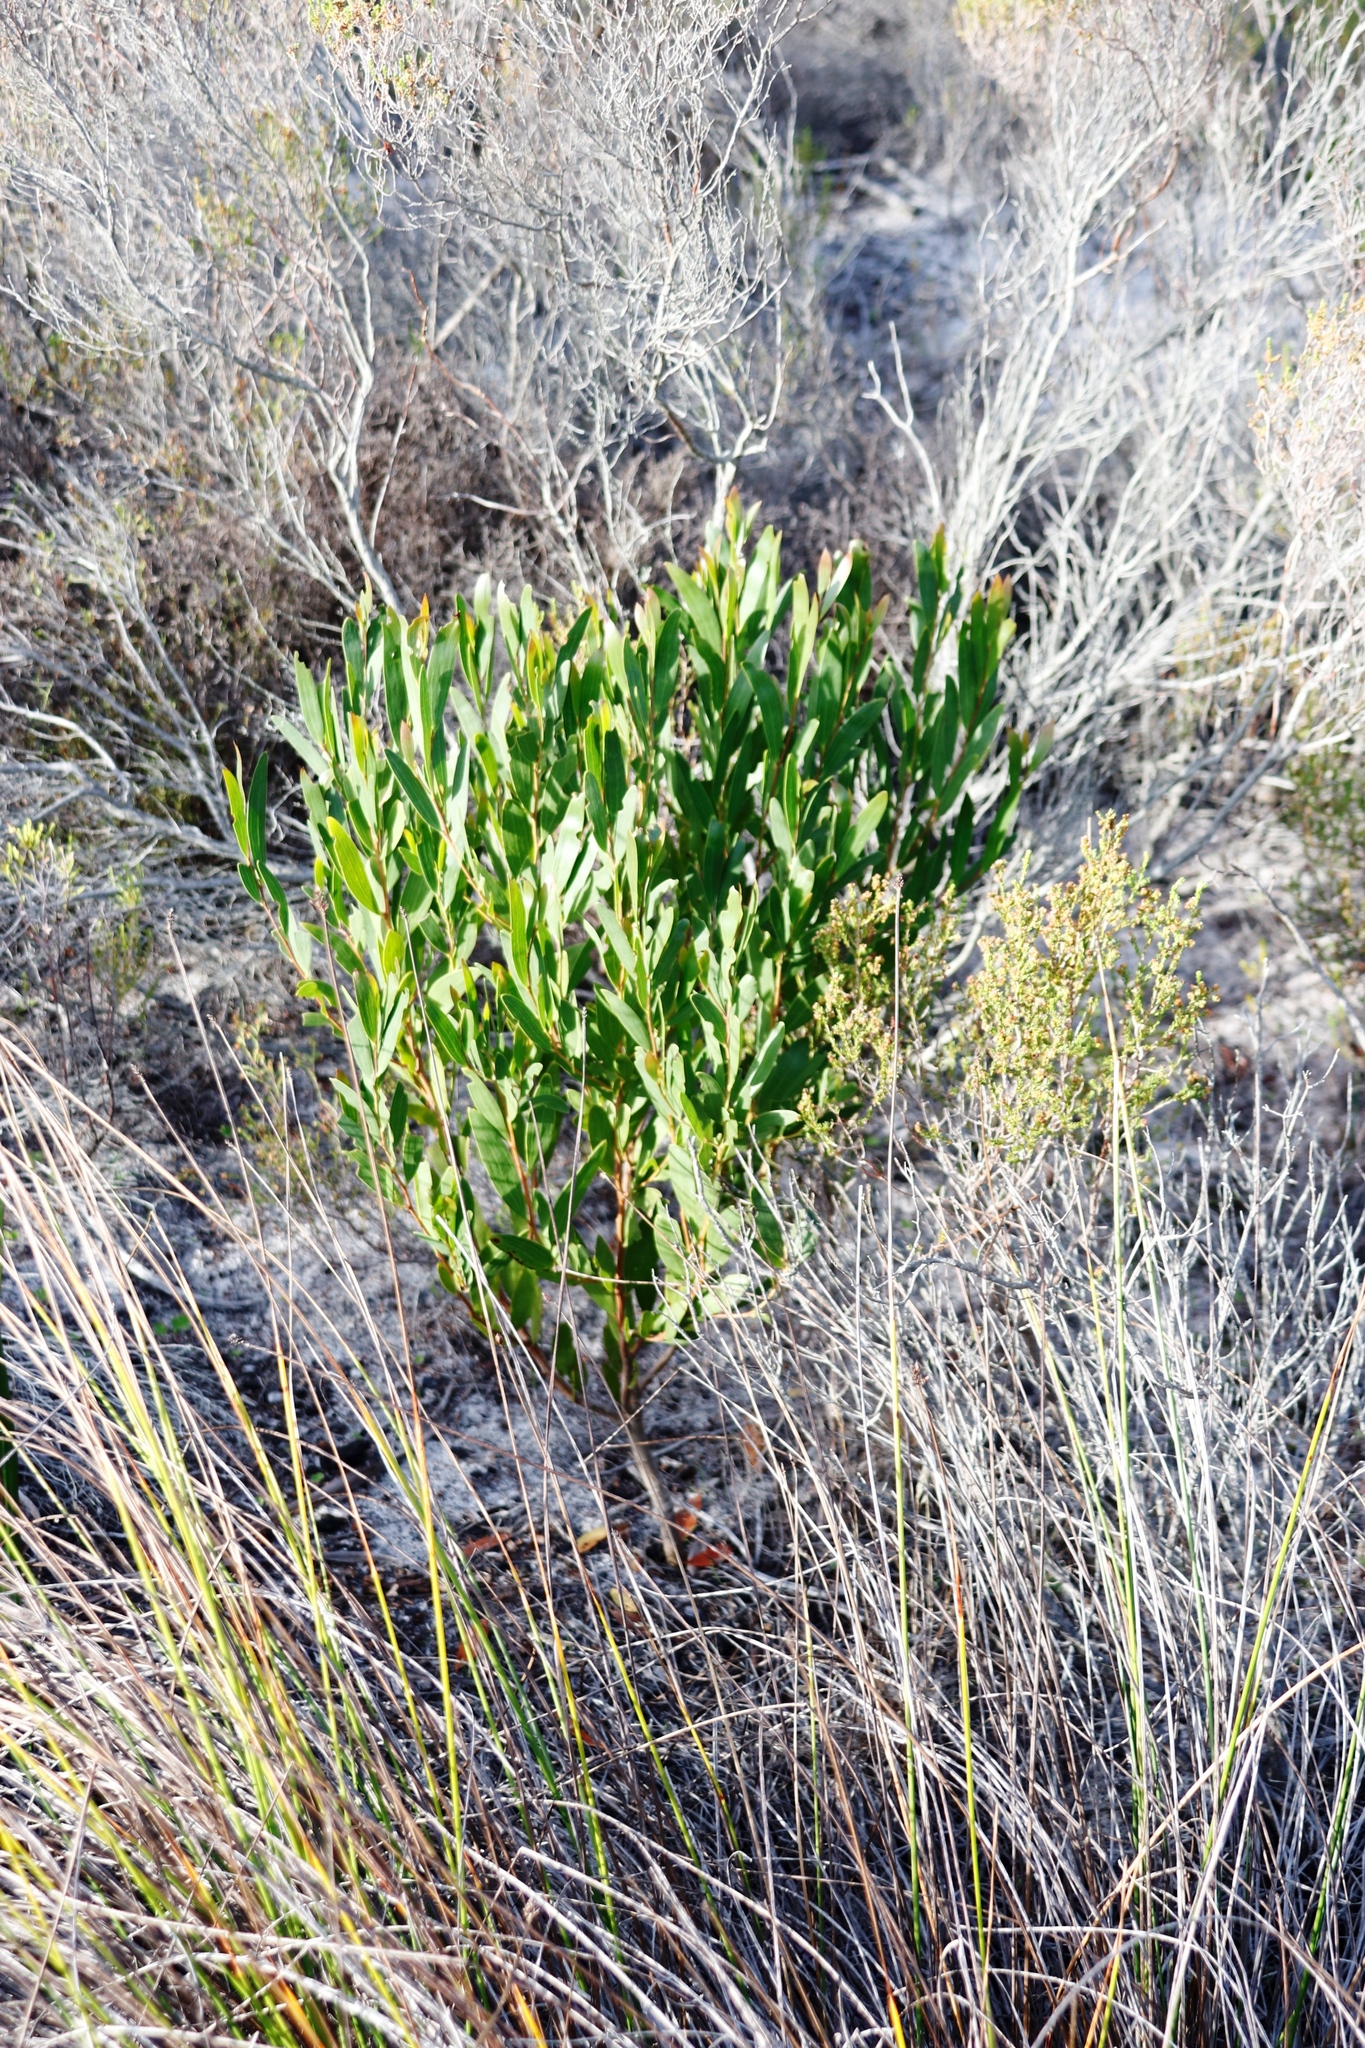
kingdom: Plantae
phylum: Tracheophyta
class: Magnoliopsida
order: Fabales
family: Fabaceae
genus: Acacia
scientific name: Acacia cyclops
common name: Coastal wattle
